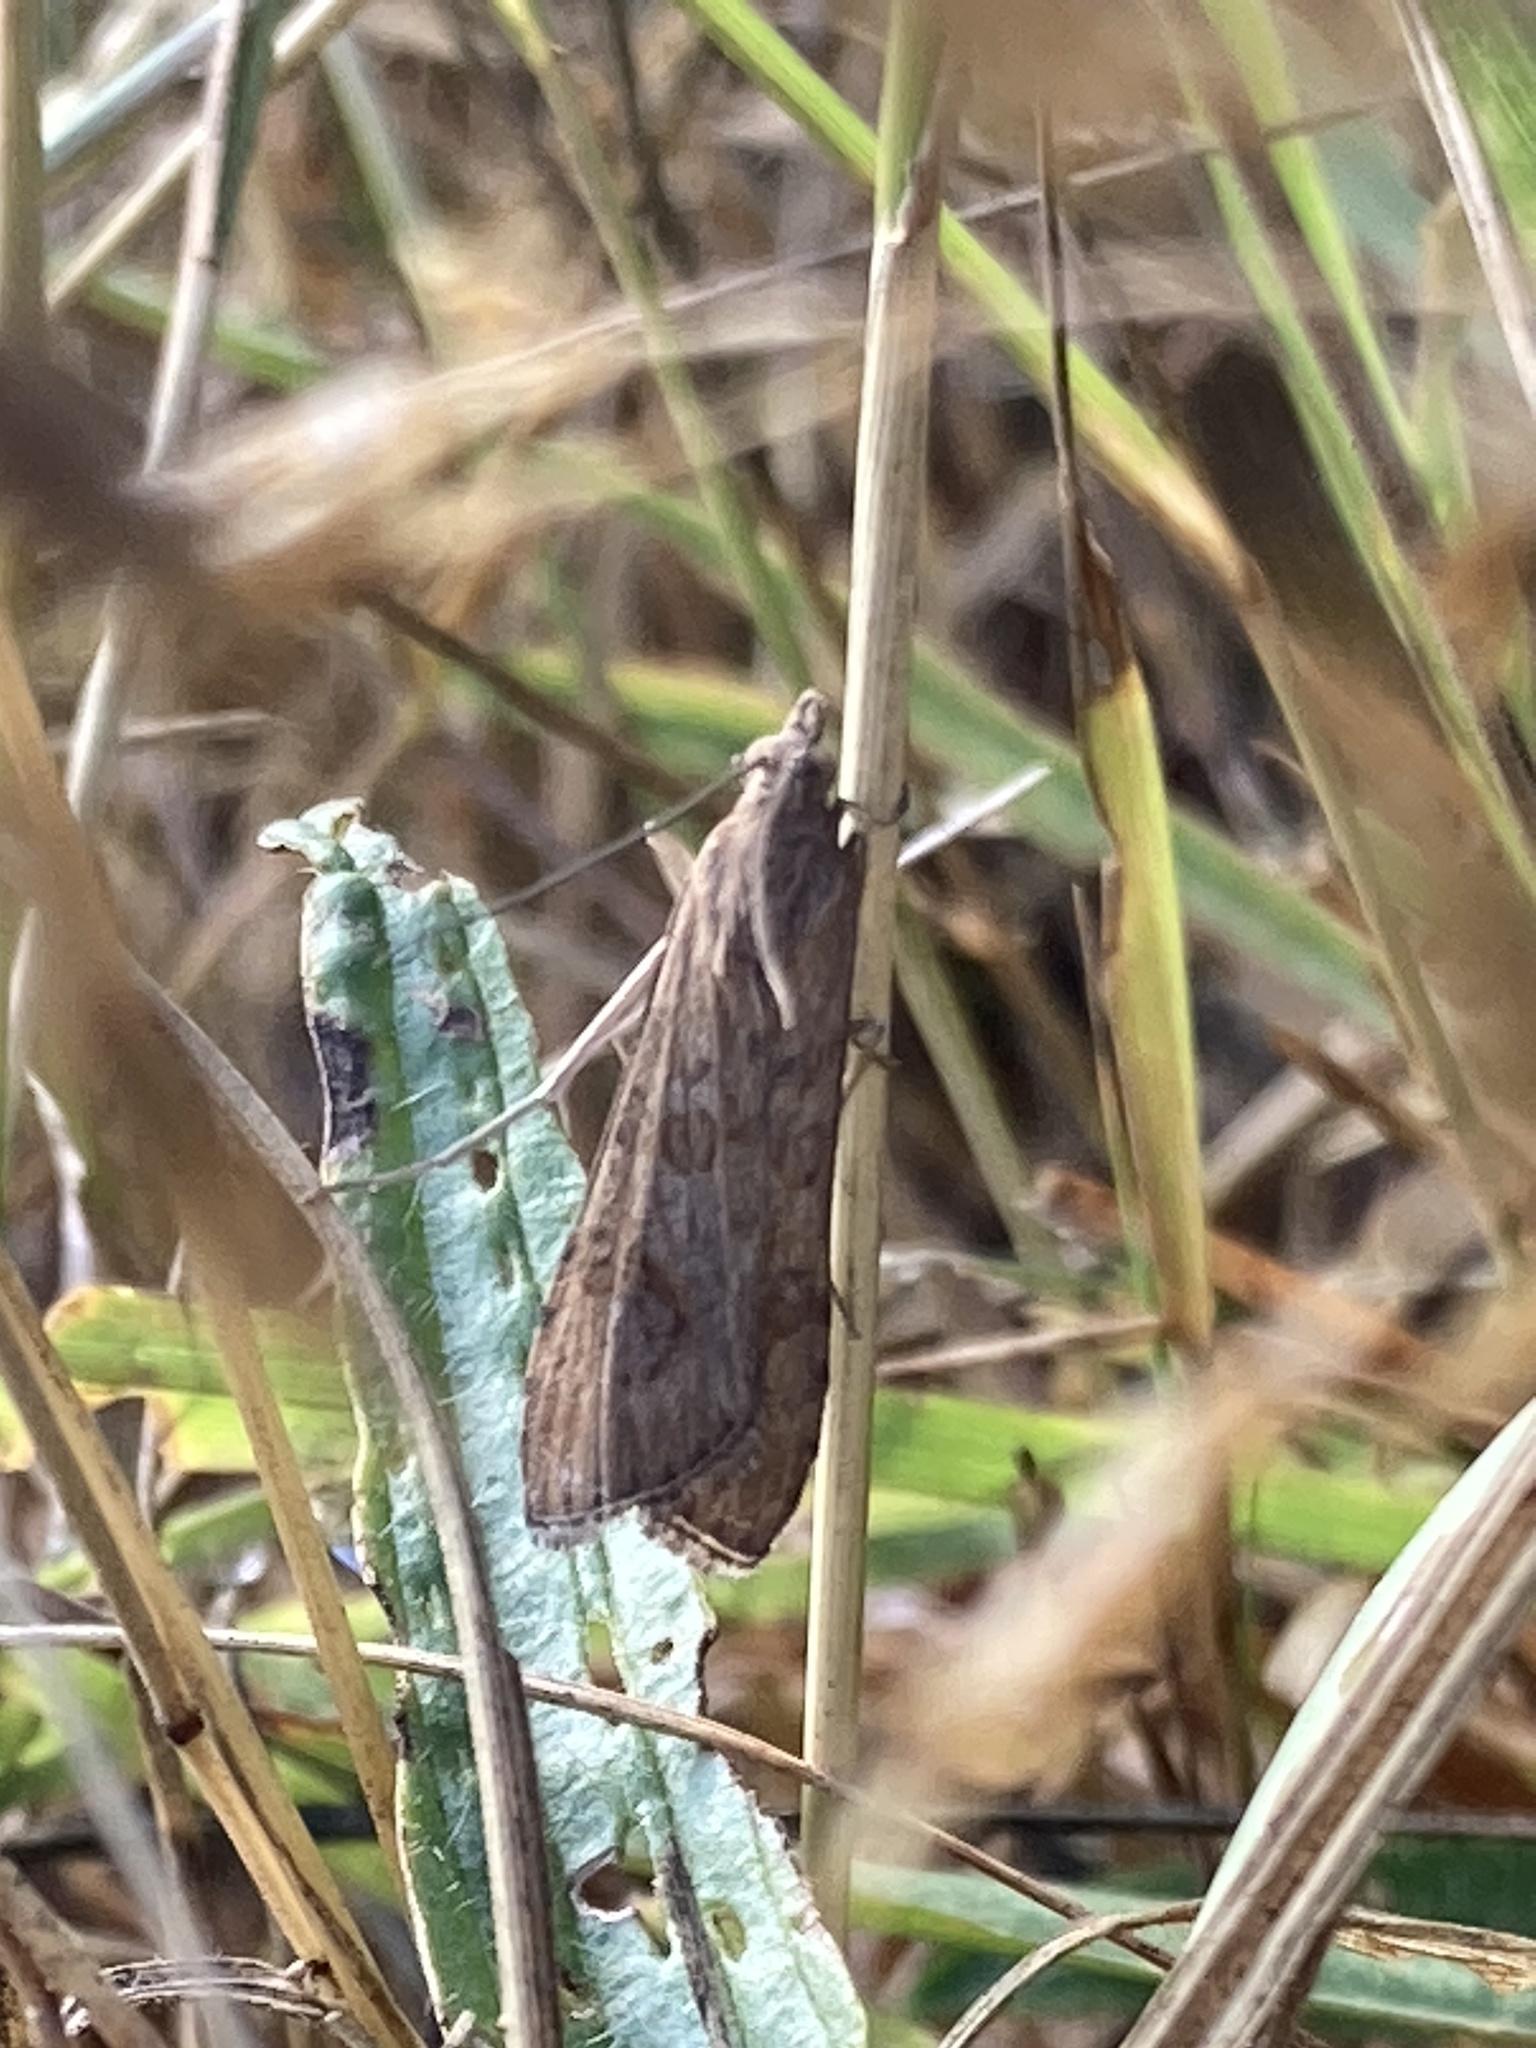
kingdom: Animalia
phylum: Arthropoda
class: Insecta
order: Lepidoptera
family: Crambidae
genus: Nomophila
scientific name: Nomophila noctuella
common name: Rush veneer
